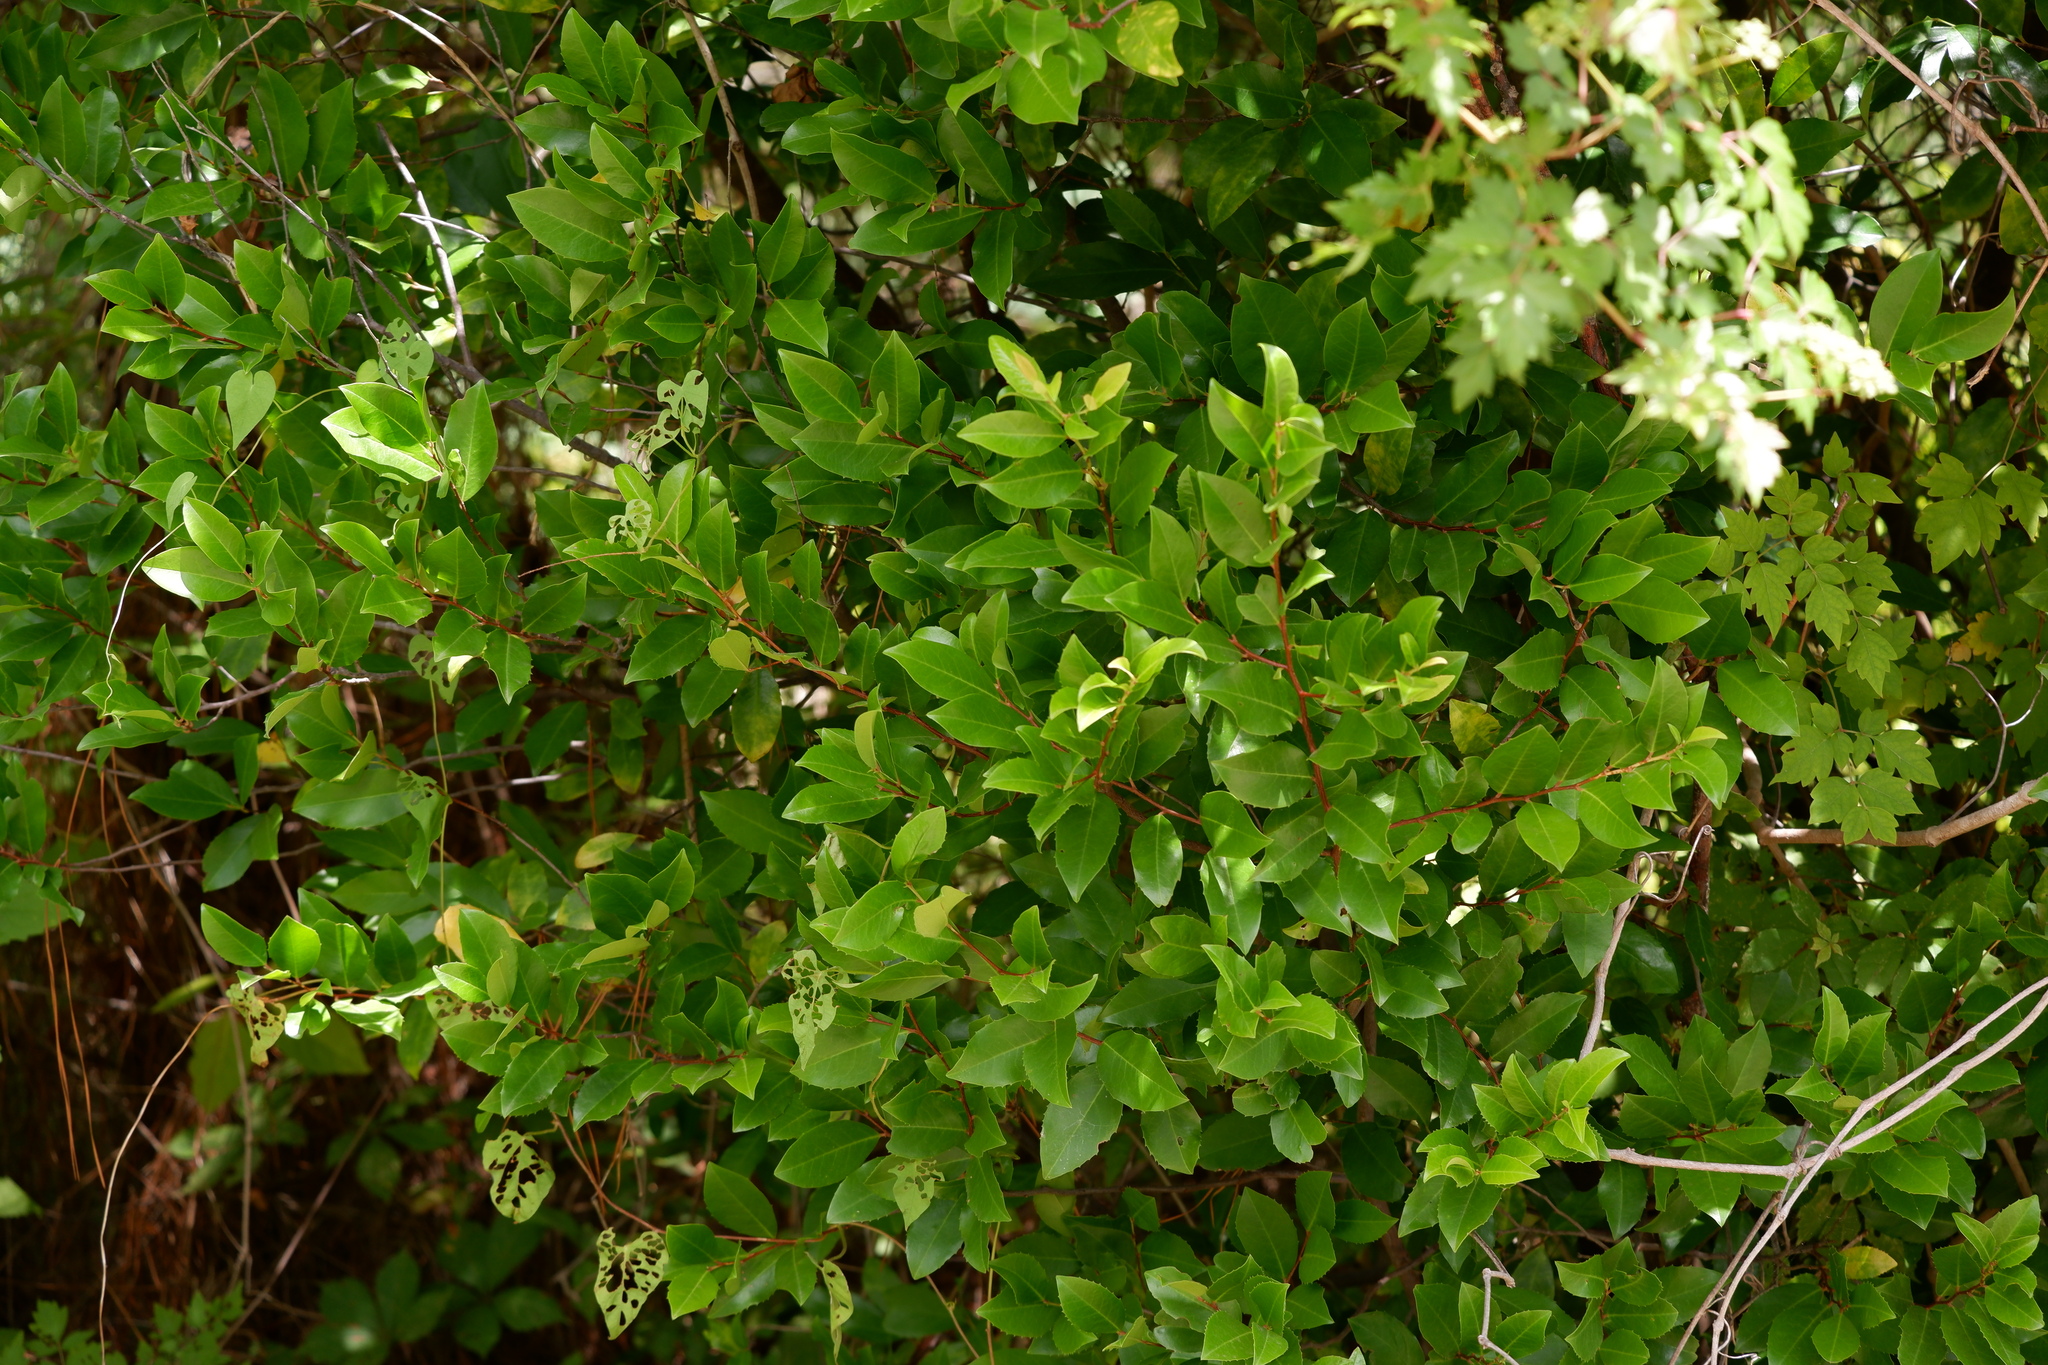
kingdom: Plantae
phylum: Tracheophyta
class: Magnoliopsida
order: Rosales
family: Rosaceae
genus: Prunus
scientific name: Prunus caroliniana
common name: Carolina laurel cherry
